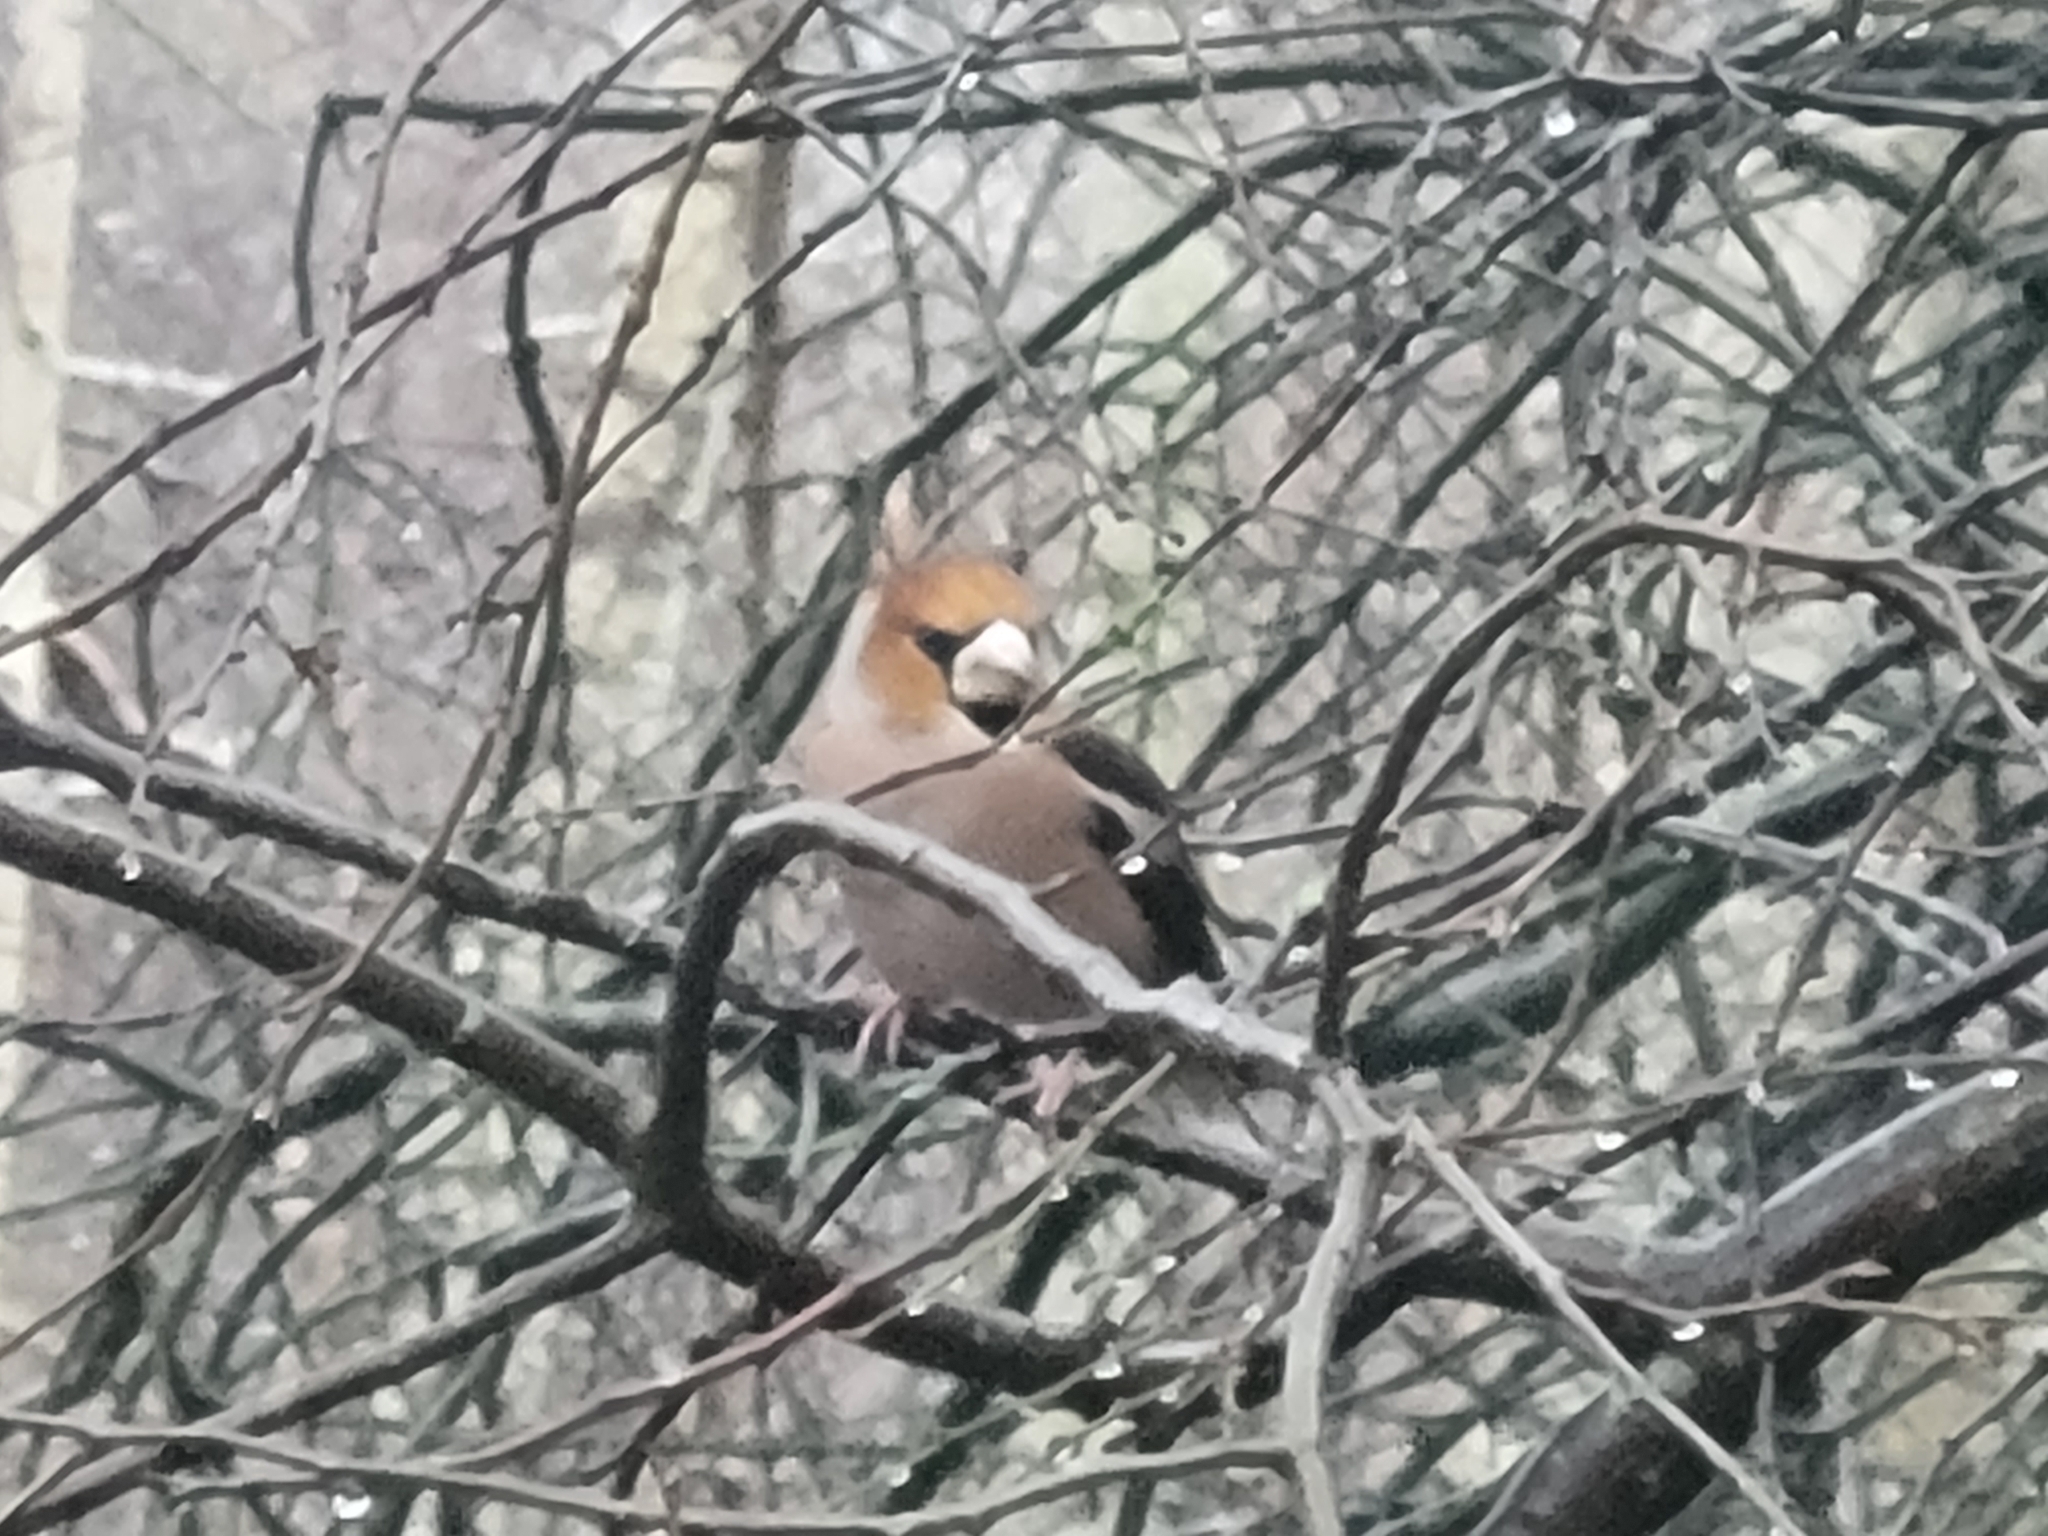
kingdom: Animalia
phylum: Chordata
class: Aves
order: Passeriformes
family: Fringillidae
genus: Coccothraustes
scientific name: Coccothraustes coccothraustes
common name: Hawfinch
